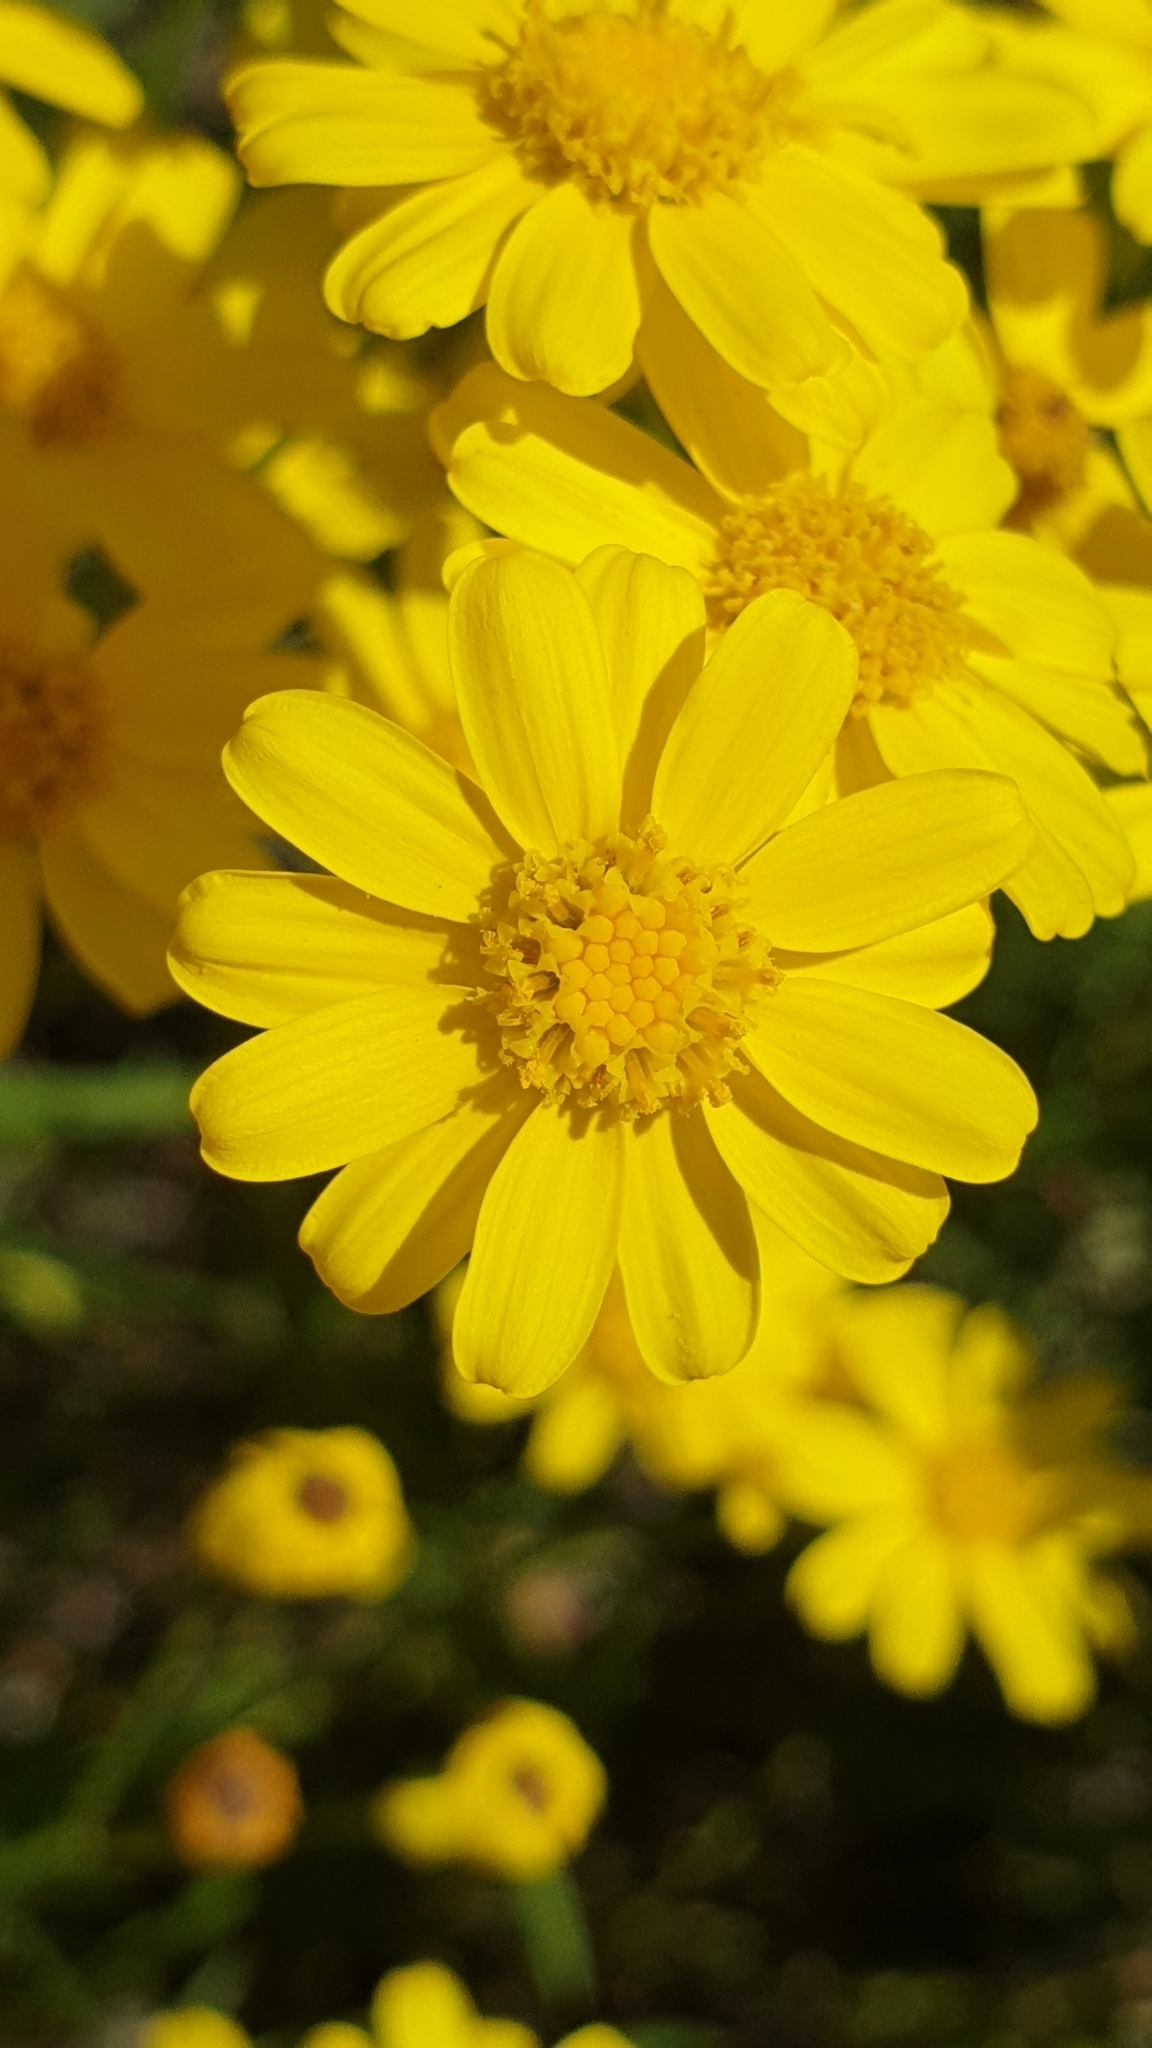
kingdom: Plantae
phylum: Tracheophyta
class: Magnoliopsida
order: Asterales
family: Asteraceae
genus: Senecio
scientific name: Senecio spanomerus
